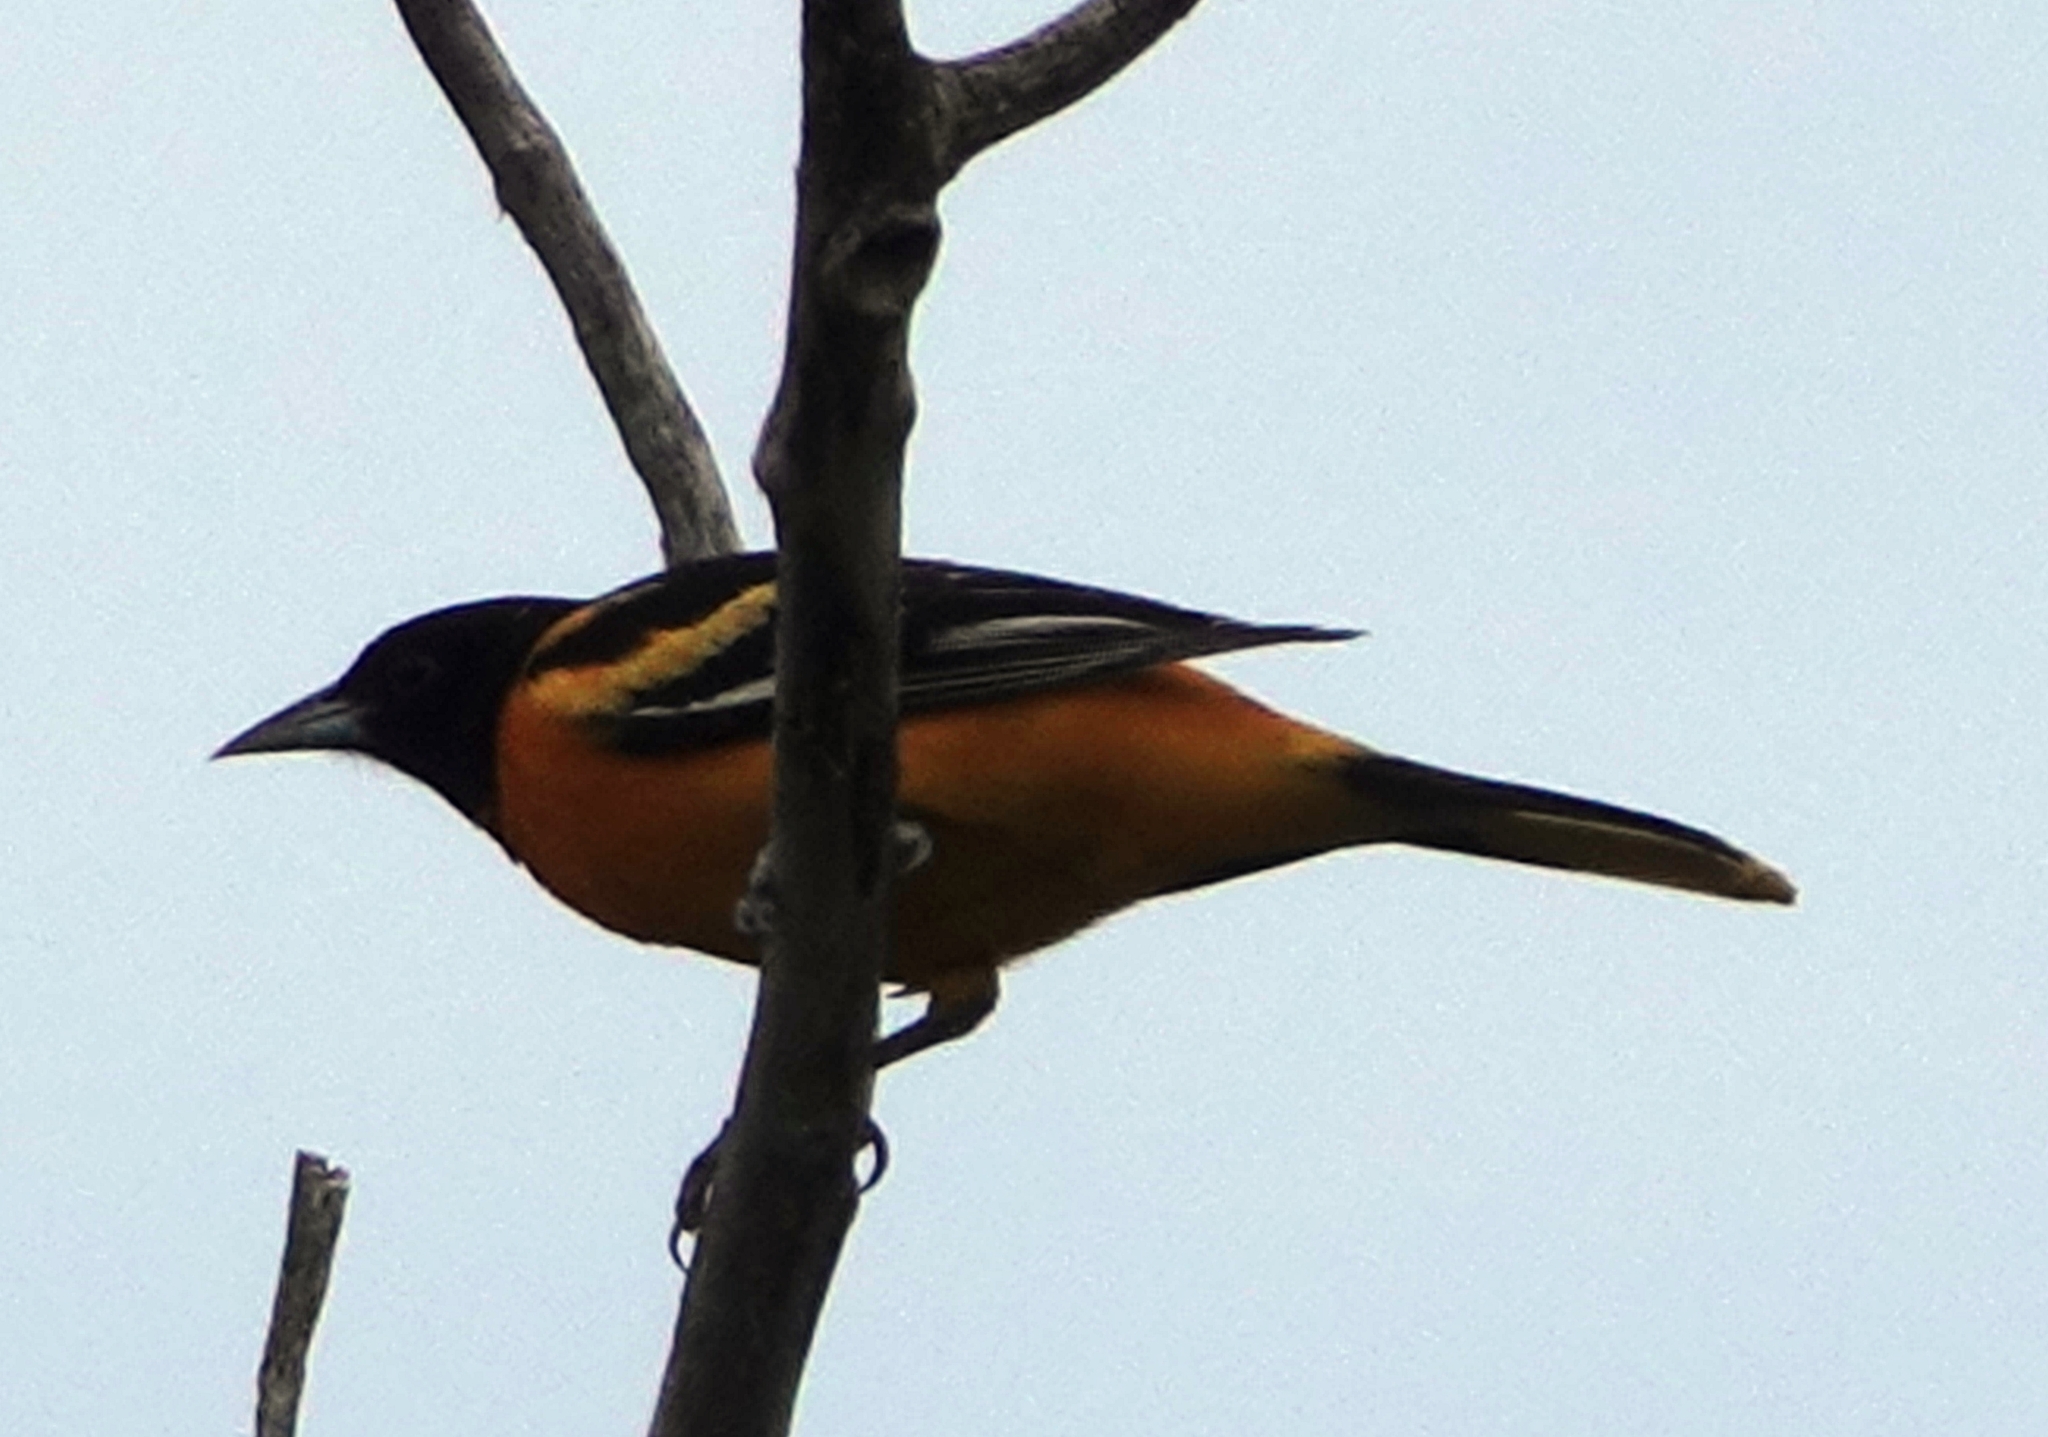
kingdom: Animalia
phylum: Chordata
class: Aves
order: Passeriformes
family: Icteridae
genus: Icterus
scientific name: Icterus galbula
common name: Baltimore oriole
